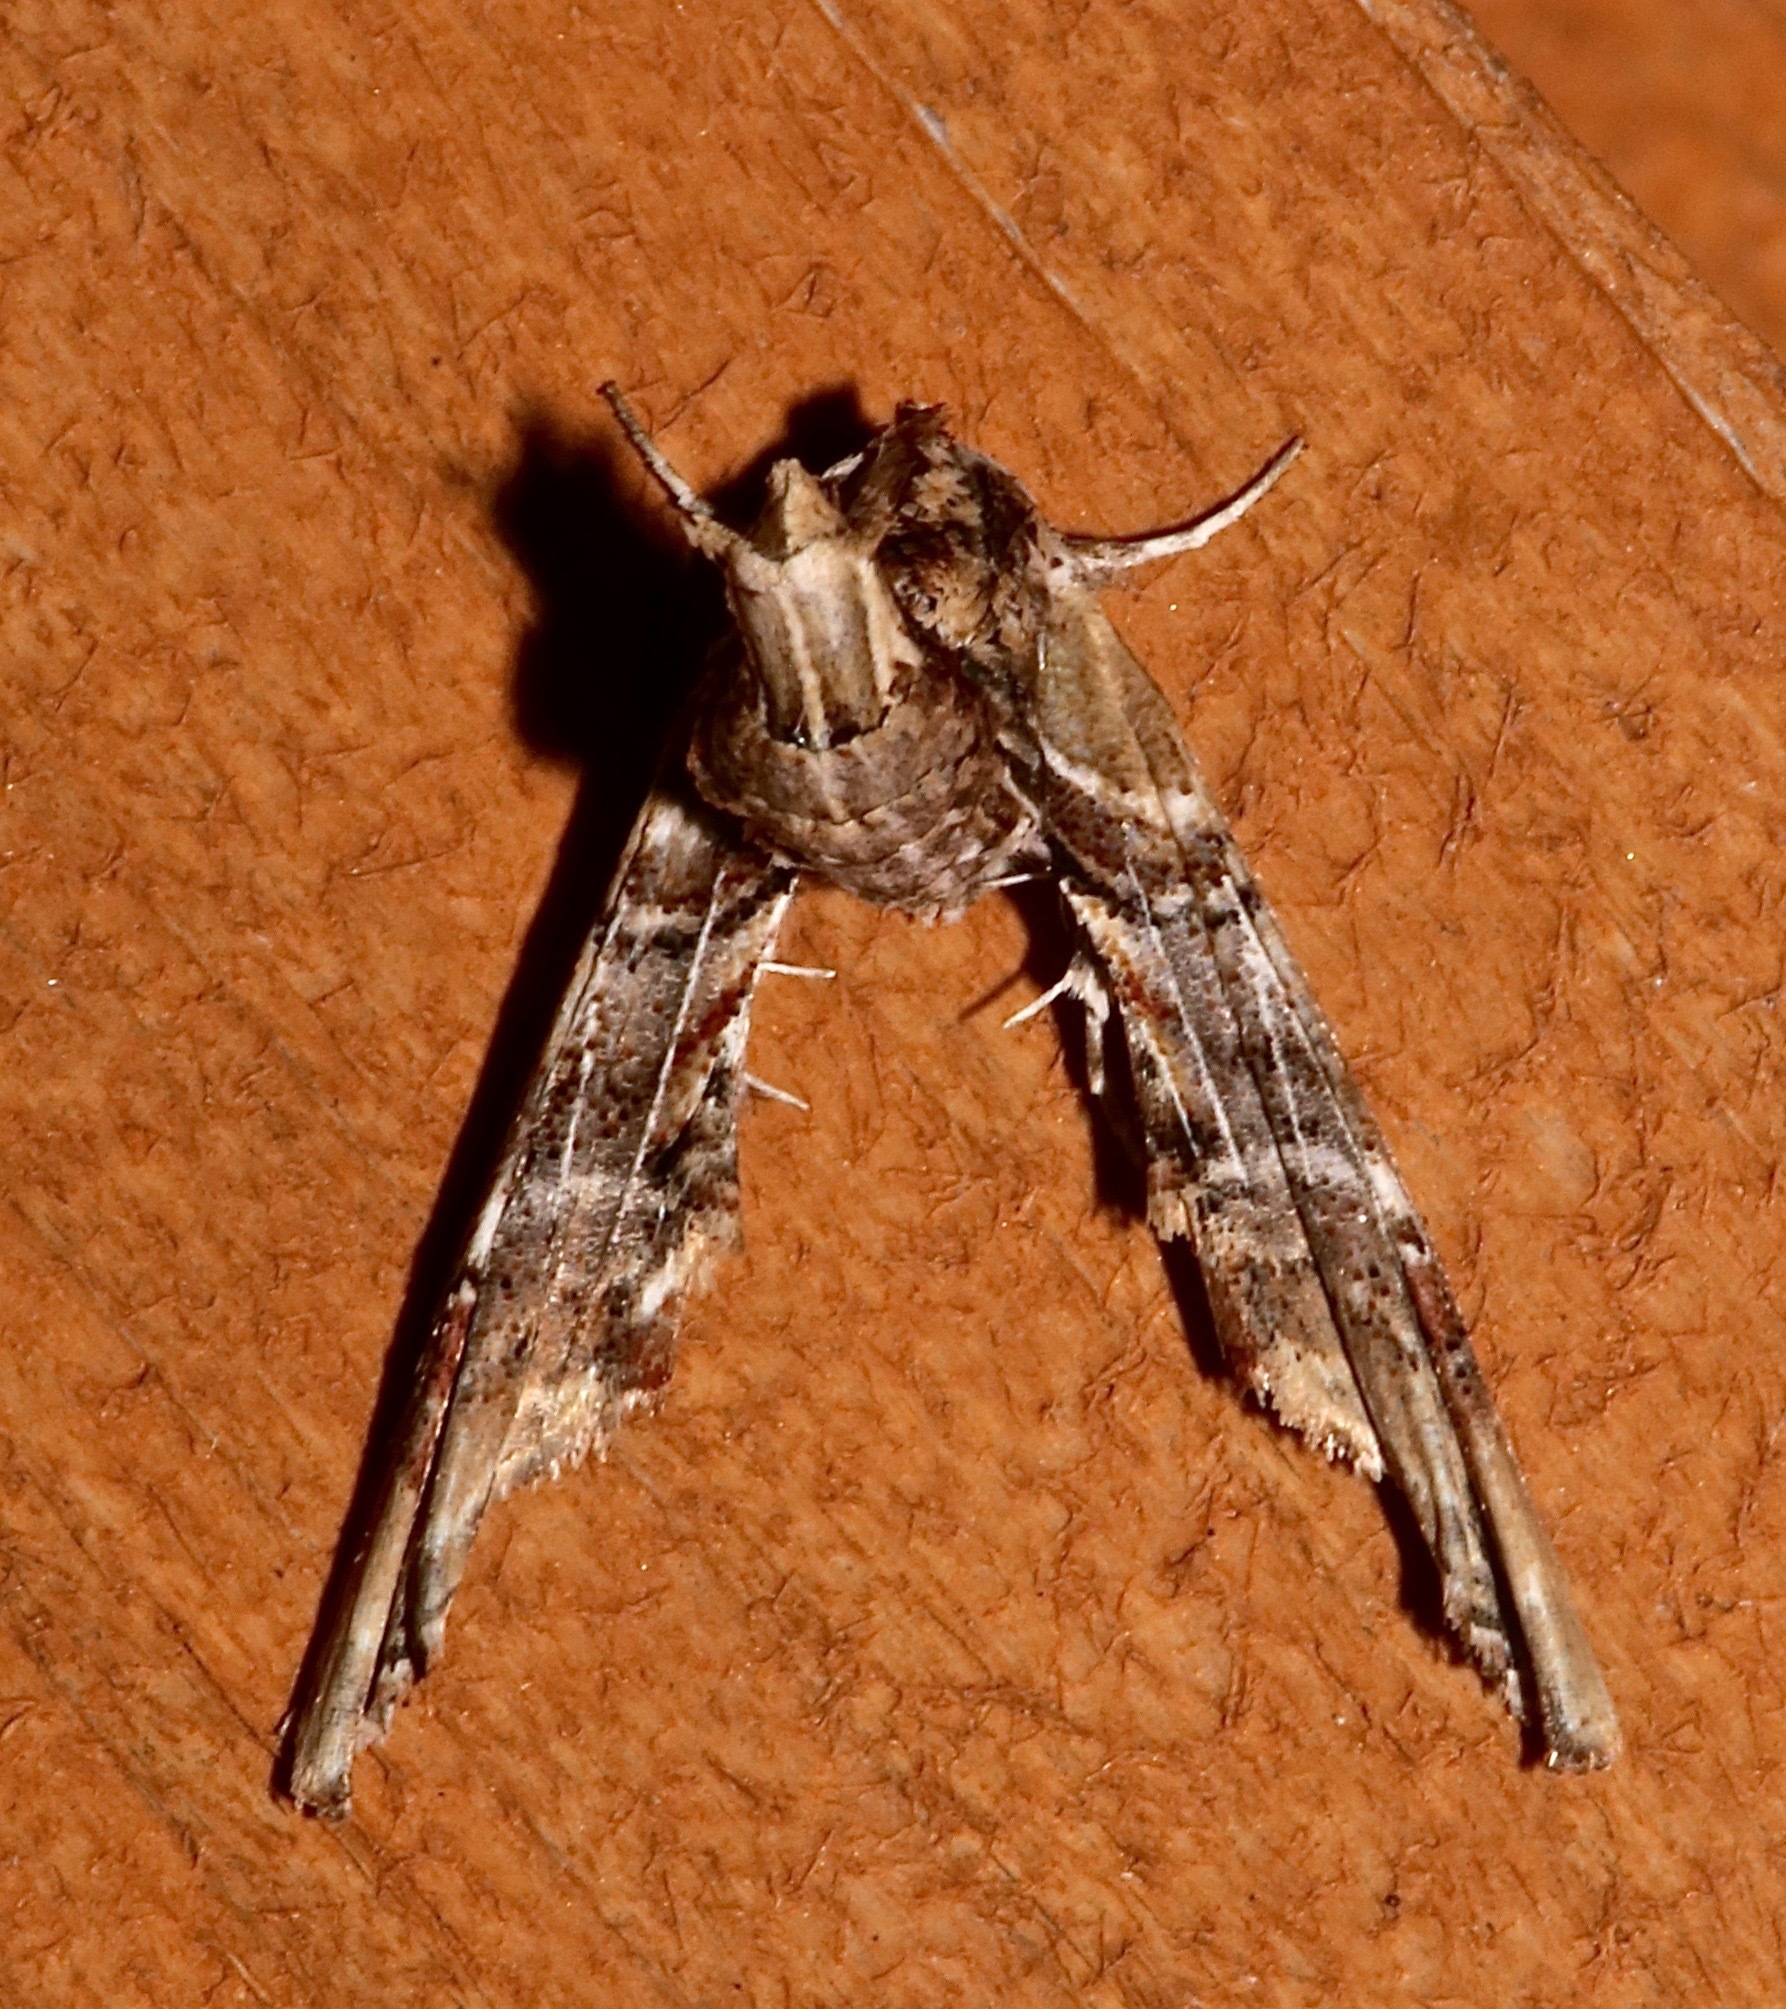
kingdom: Animalia
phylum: Arthropoda
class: Insecta
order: Lepidoptera
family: Euteliidae
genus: Marathyssa
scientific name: Marathyssa basalis
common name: Light marathyssa moth
